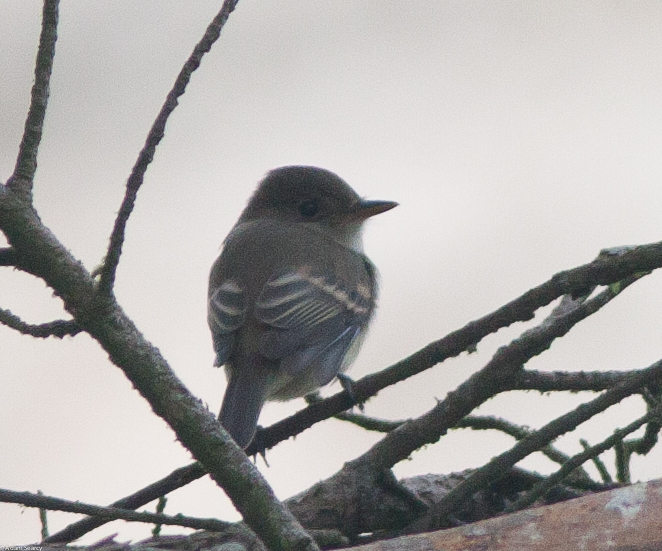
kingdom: Animalia
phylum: Chordata
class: Aves
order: Passeriformes
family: Tyrannidae
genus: Empidonax
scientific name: Empidonax traillii
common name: Willow flycatcher
